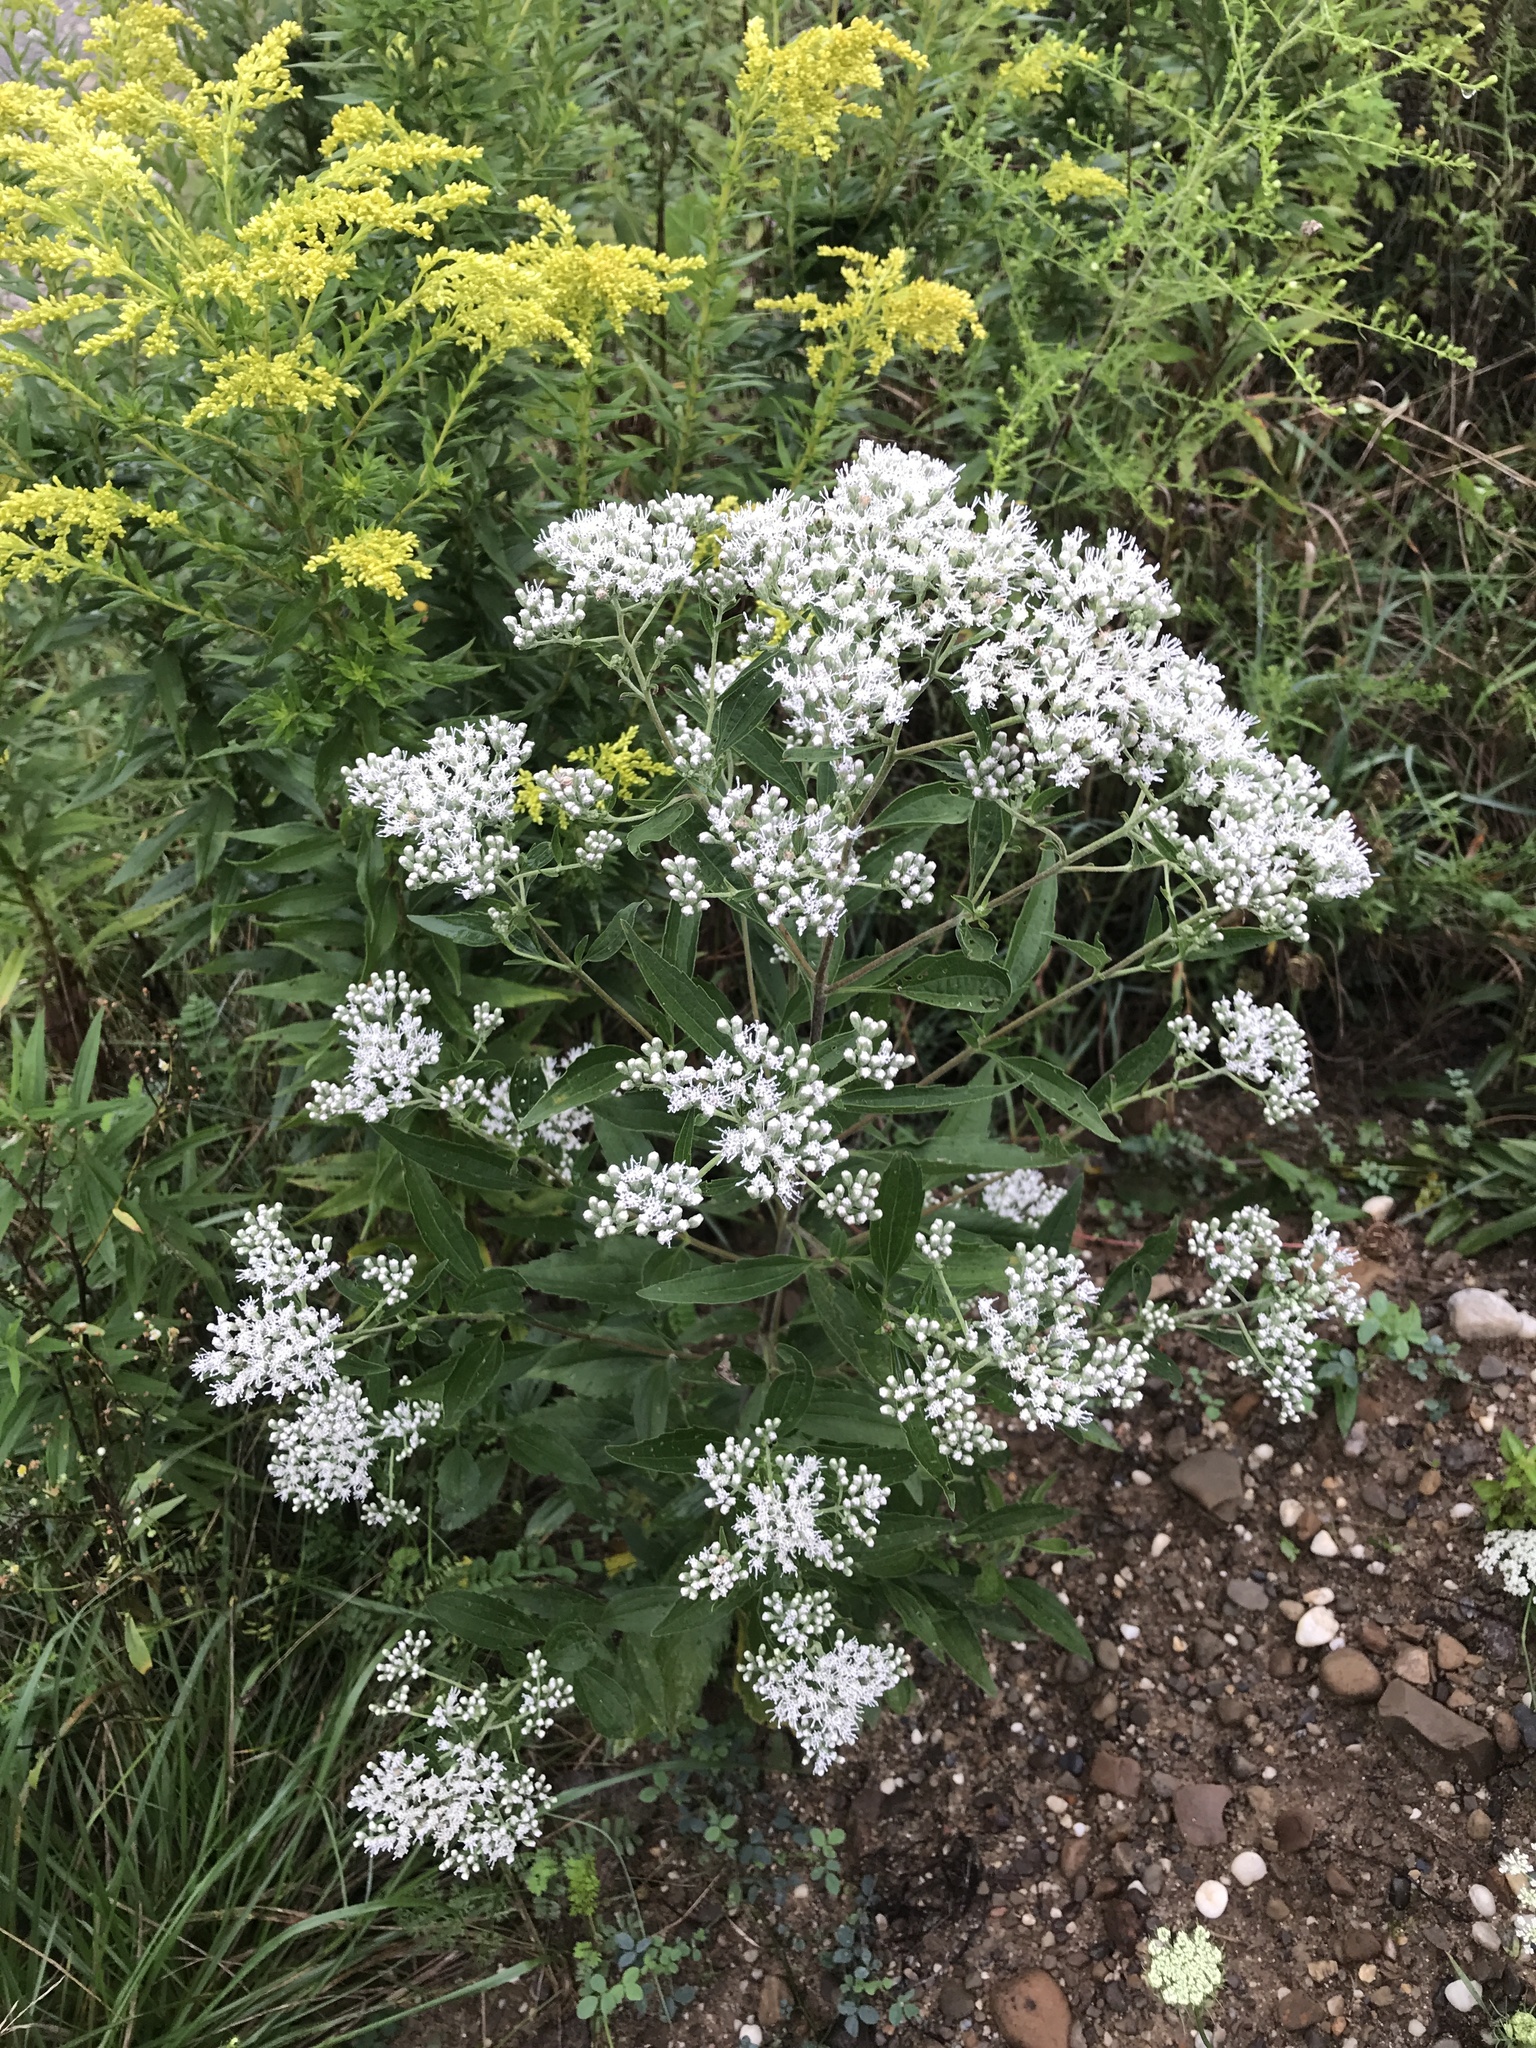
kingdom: Plantae
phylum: Tracheophyta
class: Magnoliopsida
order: Asterales
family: Asteraceae
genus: Eupatorium
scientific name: Eupatorium serotinum
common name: Late boneset
